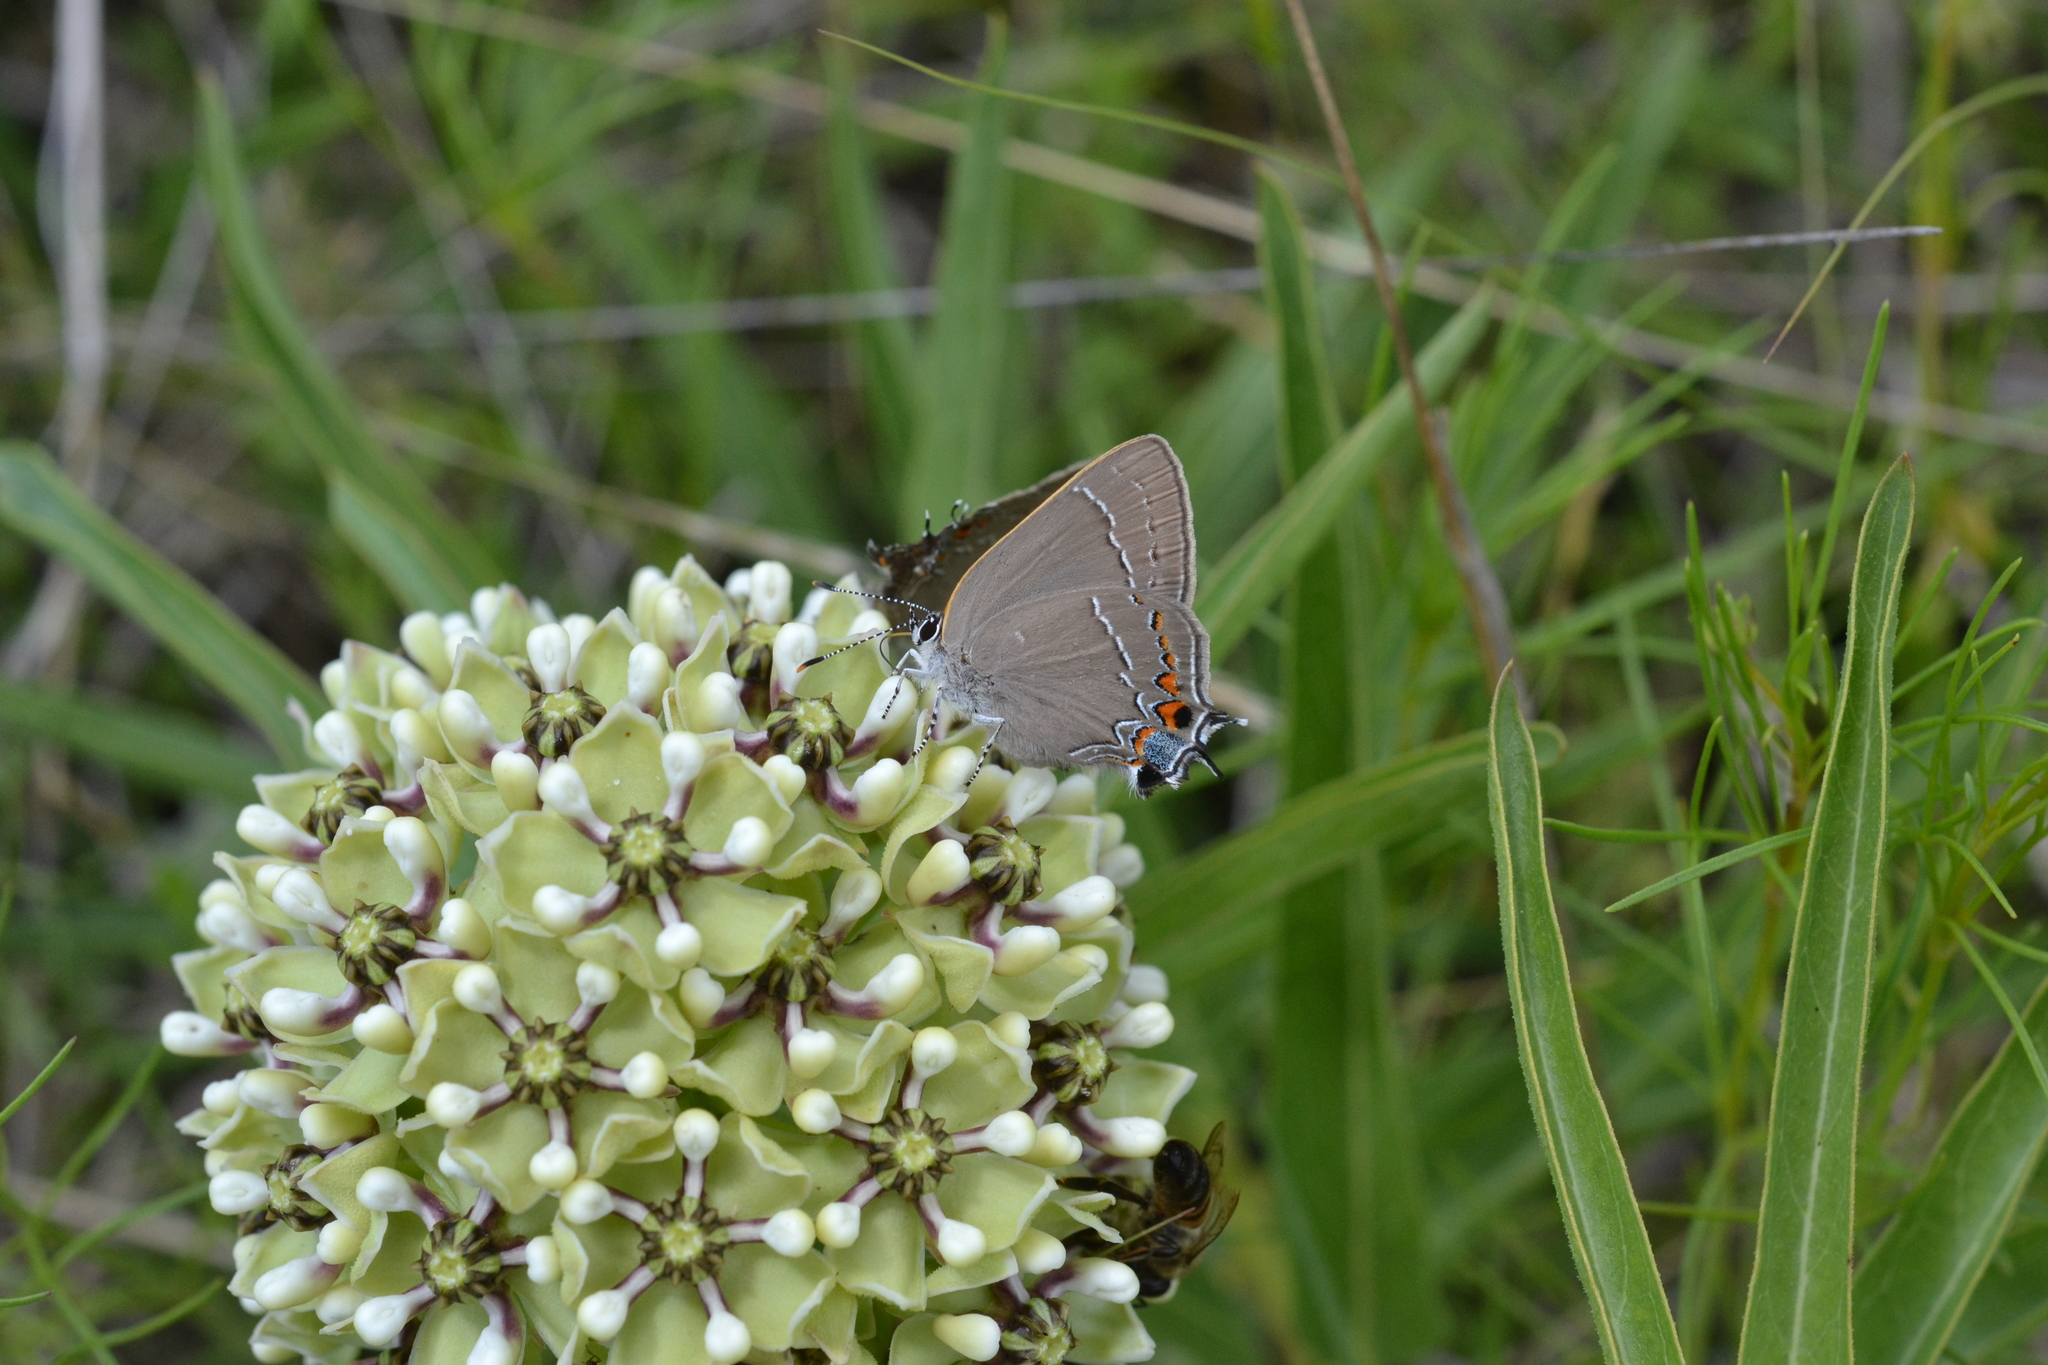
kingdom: Animalia
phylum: Arthropoda
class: Insecta
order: Lepidoptera
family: Lycaenidae
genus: Fixsenia
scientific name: Fixsenia favonius
